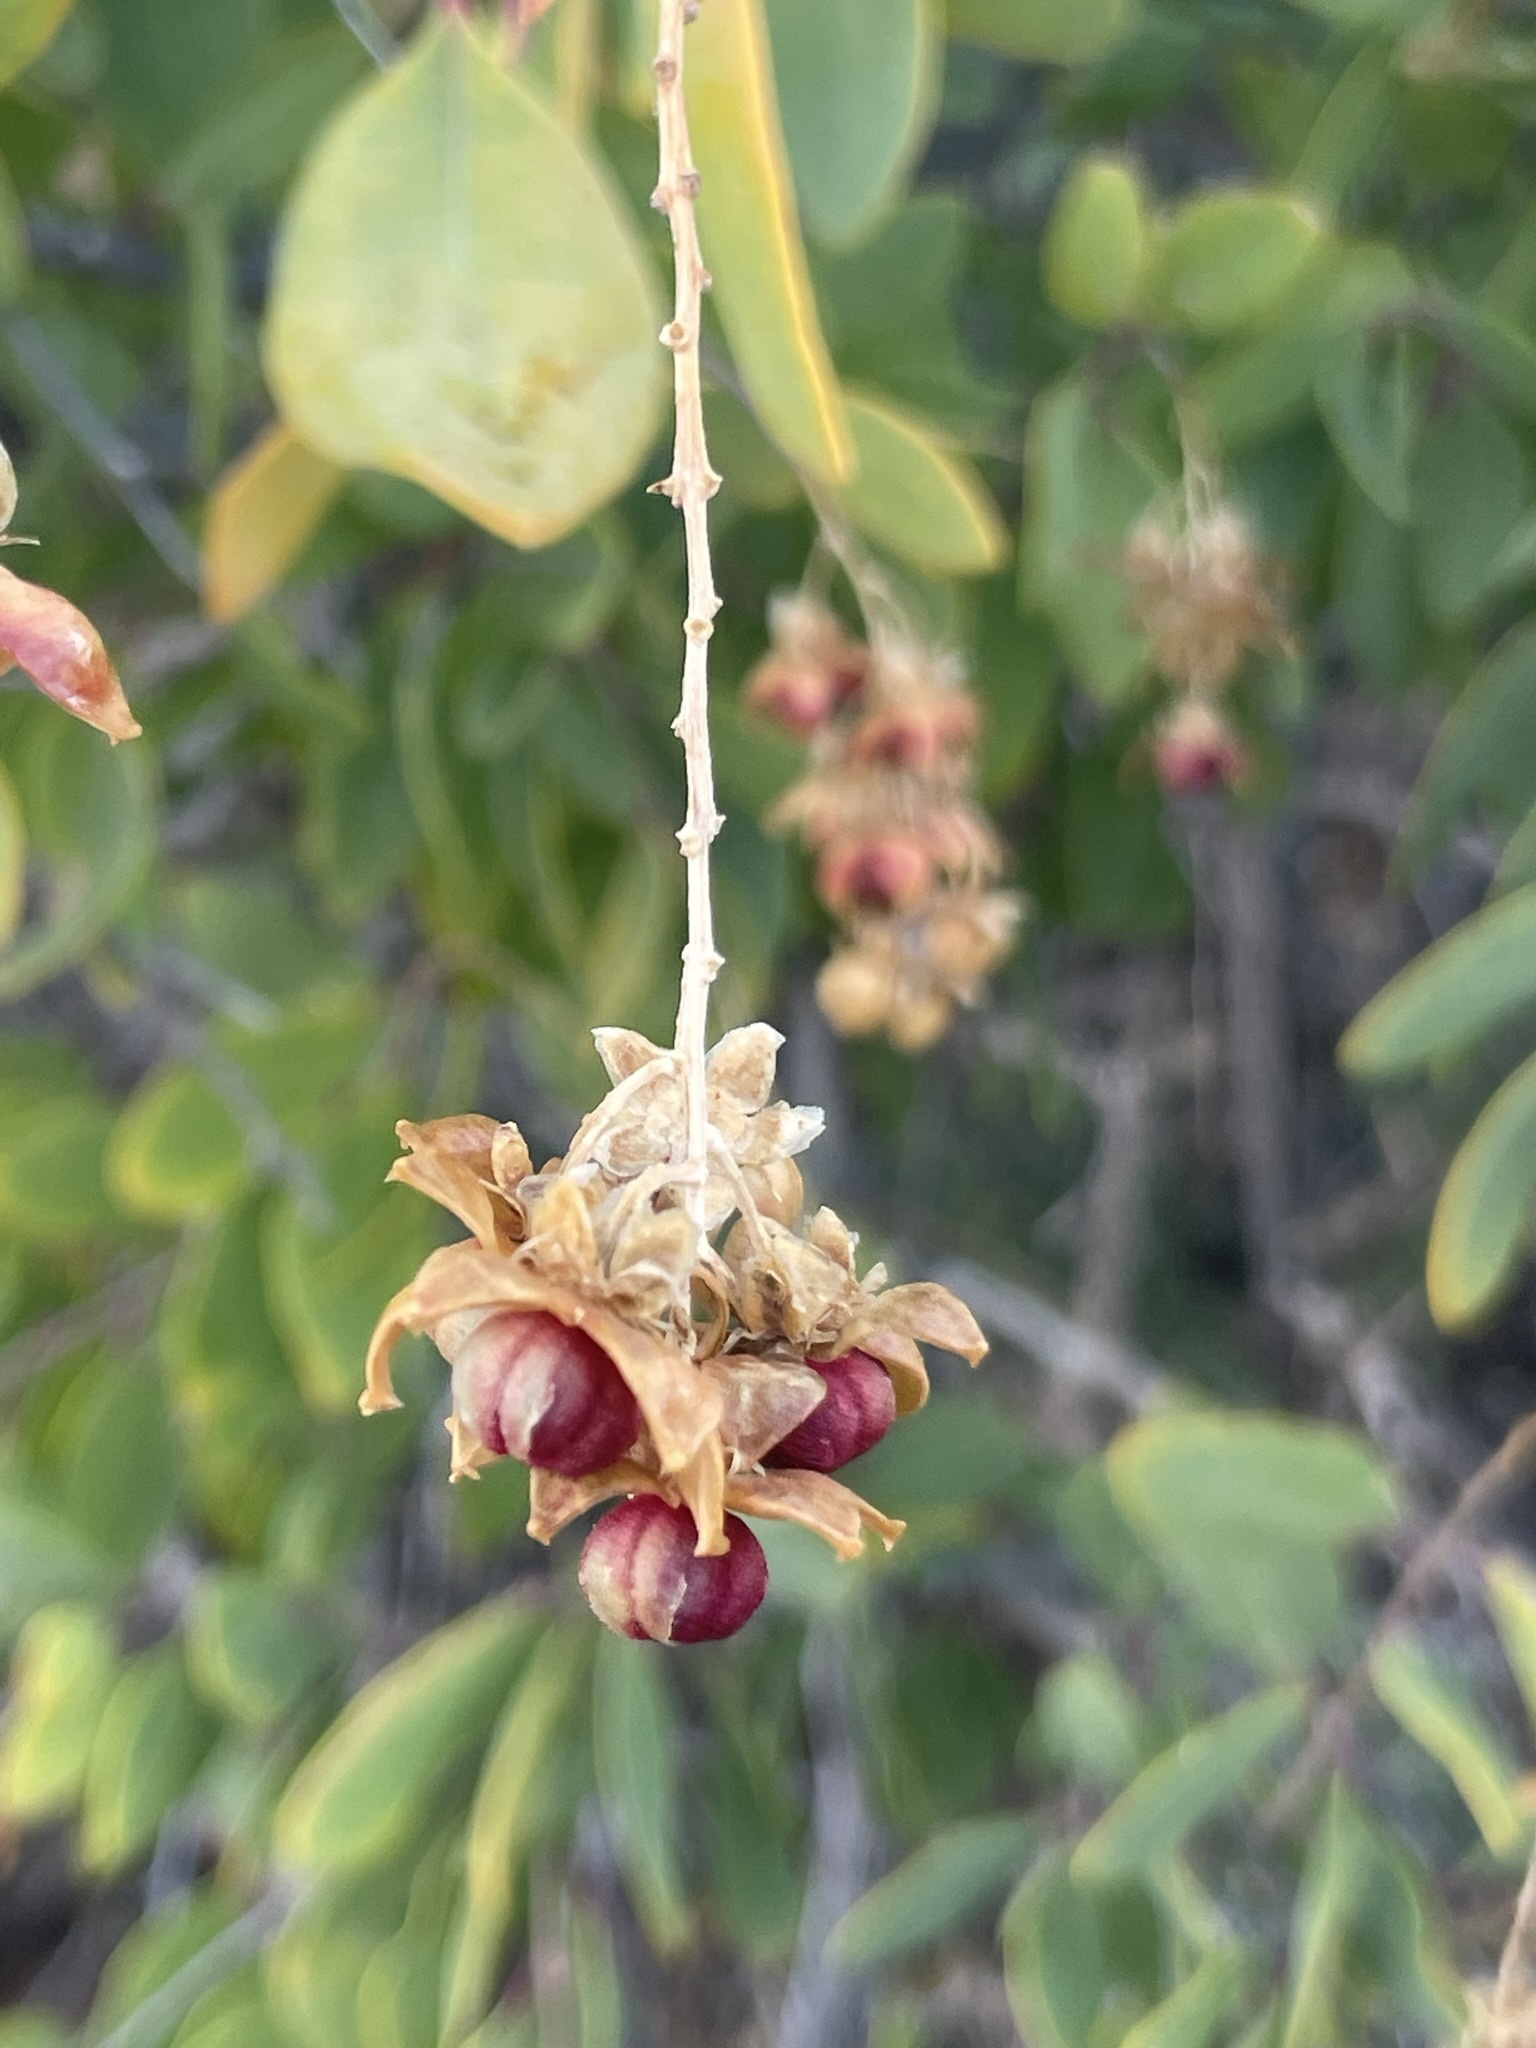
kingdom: Plantae
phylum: Tracheophyta
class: Magnoliopsida
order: Caryophyllales
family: Stegnospermataceae
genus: Stegnosperma
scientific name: Stegnosperma halimifolium
